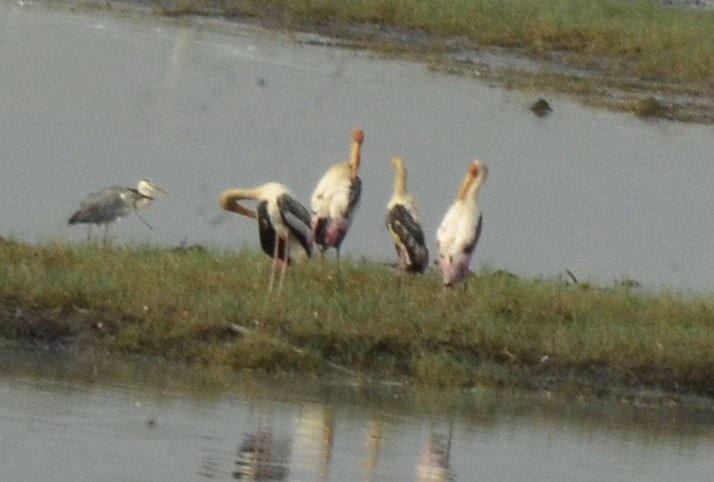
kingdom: Animalia
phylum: Chordata
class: Aves
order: Ciconiiformes
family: Ciconiidae
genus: Mycteria
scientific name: Mycteria leucocephala
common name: Painted stork
